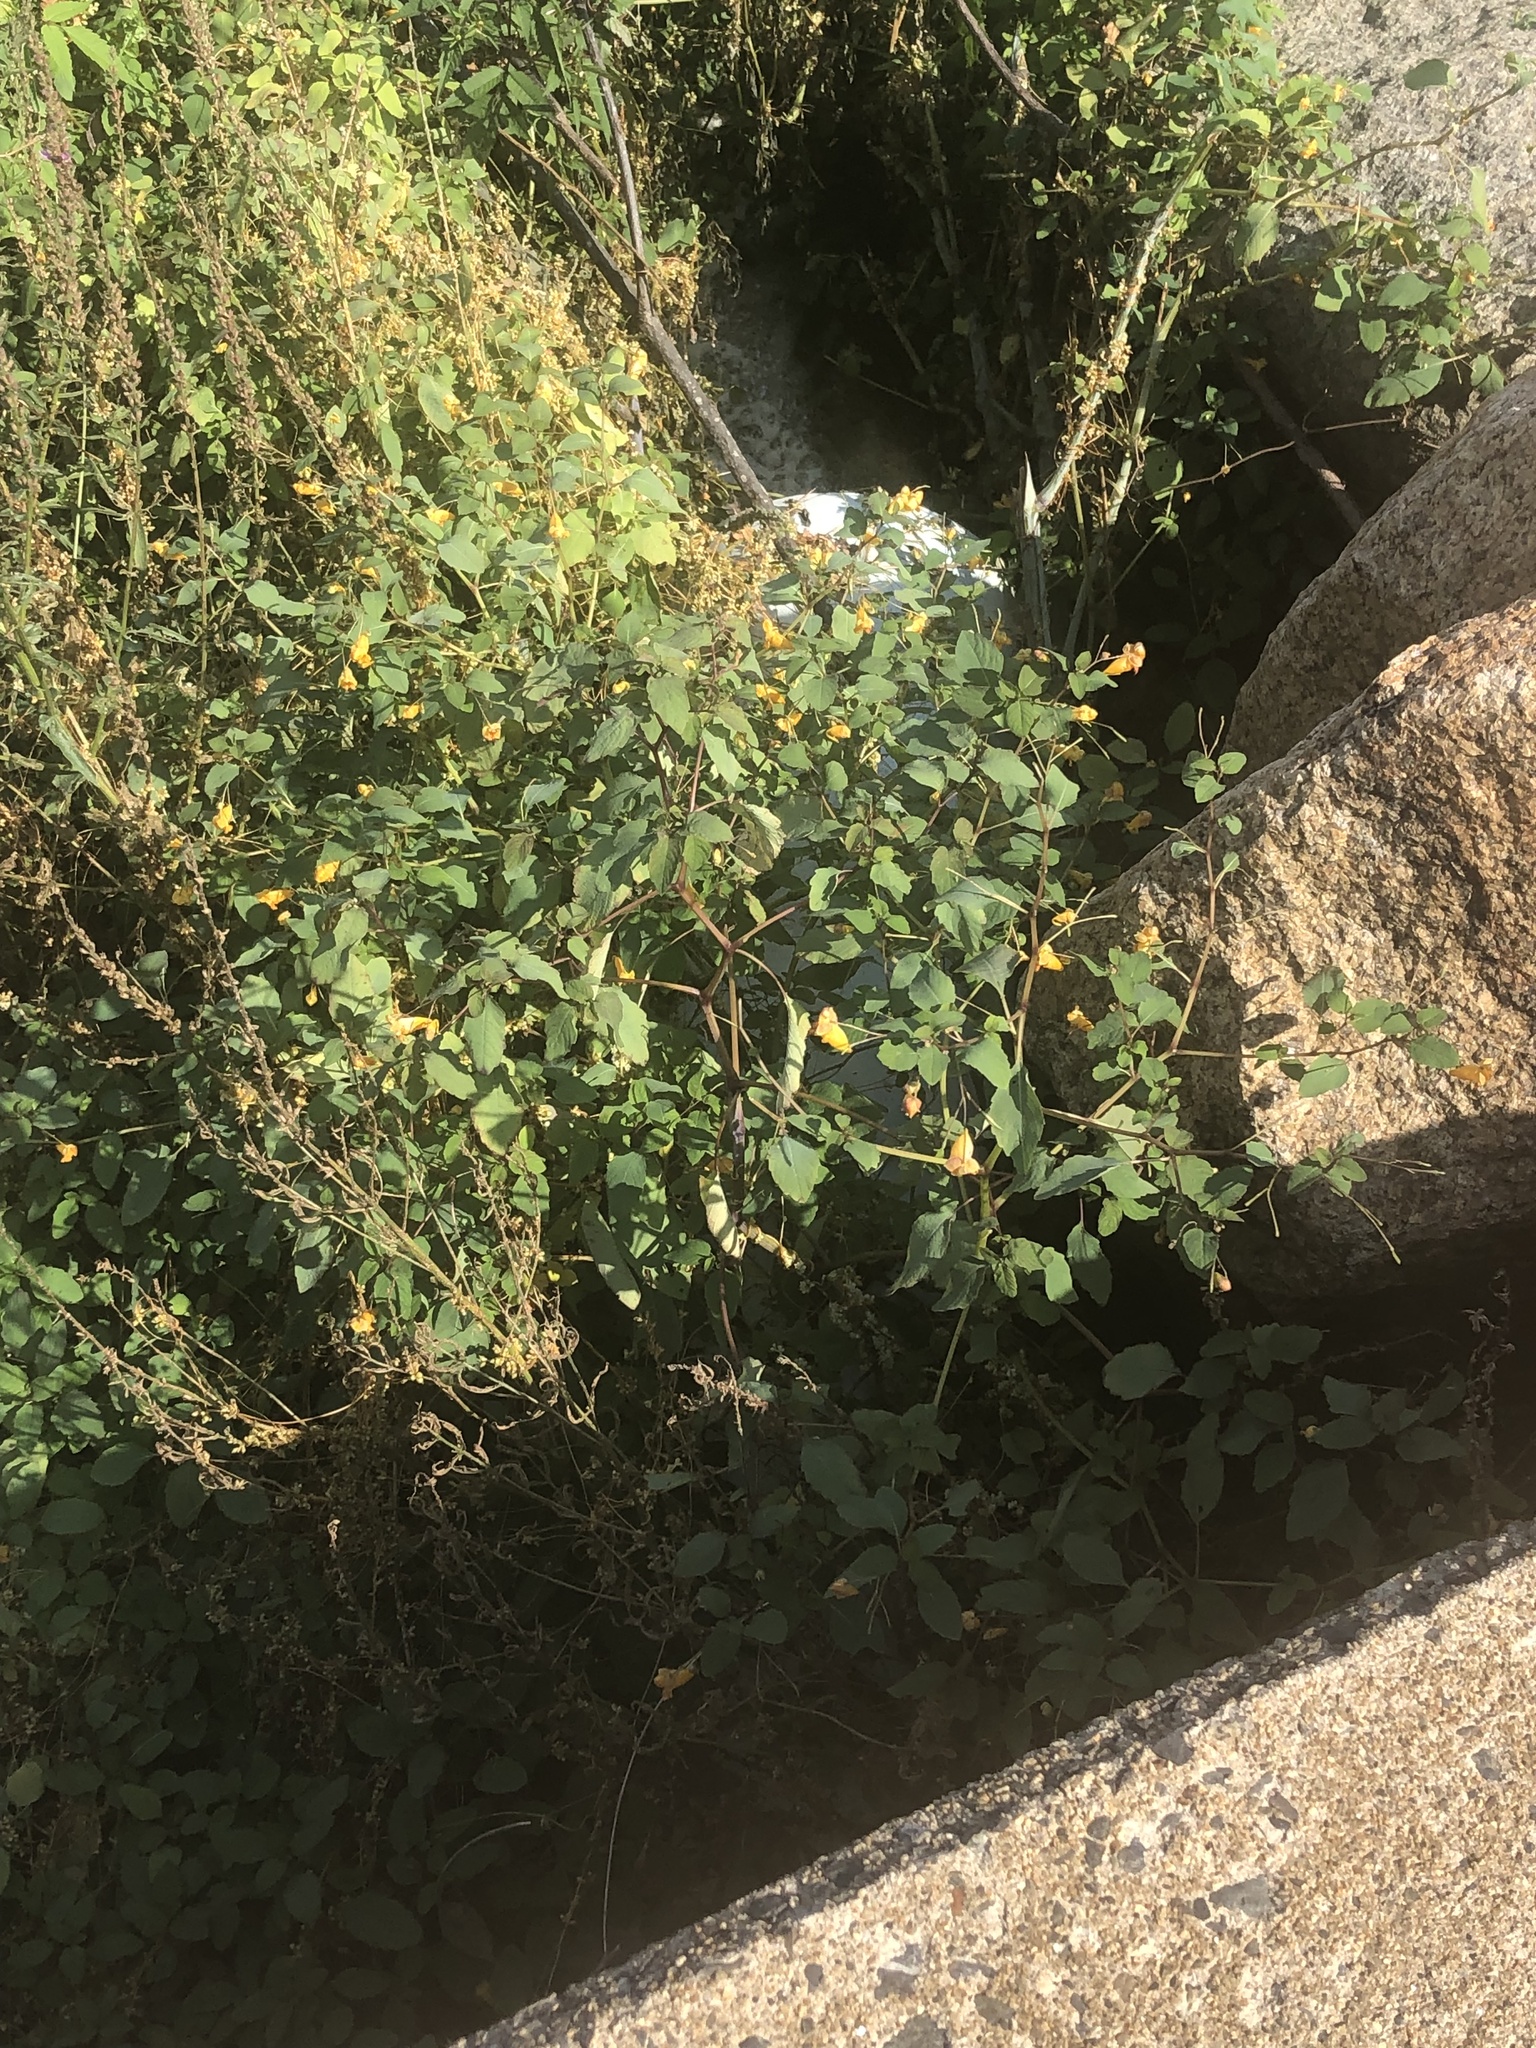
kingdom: Plantae
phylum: Tracheophyta
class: Magnoliopsida
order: Ericales
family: Balsaminaceae
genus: Impatiens
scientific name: Impatiens capensis
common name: Orange balsam
